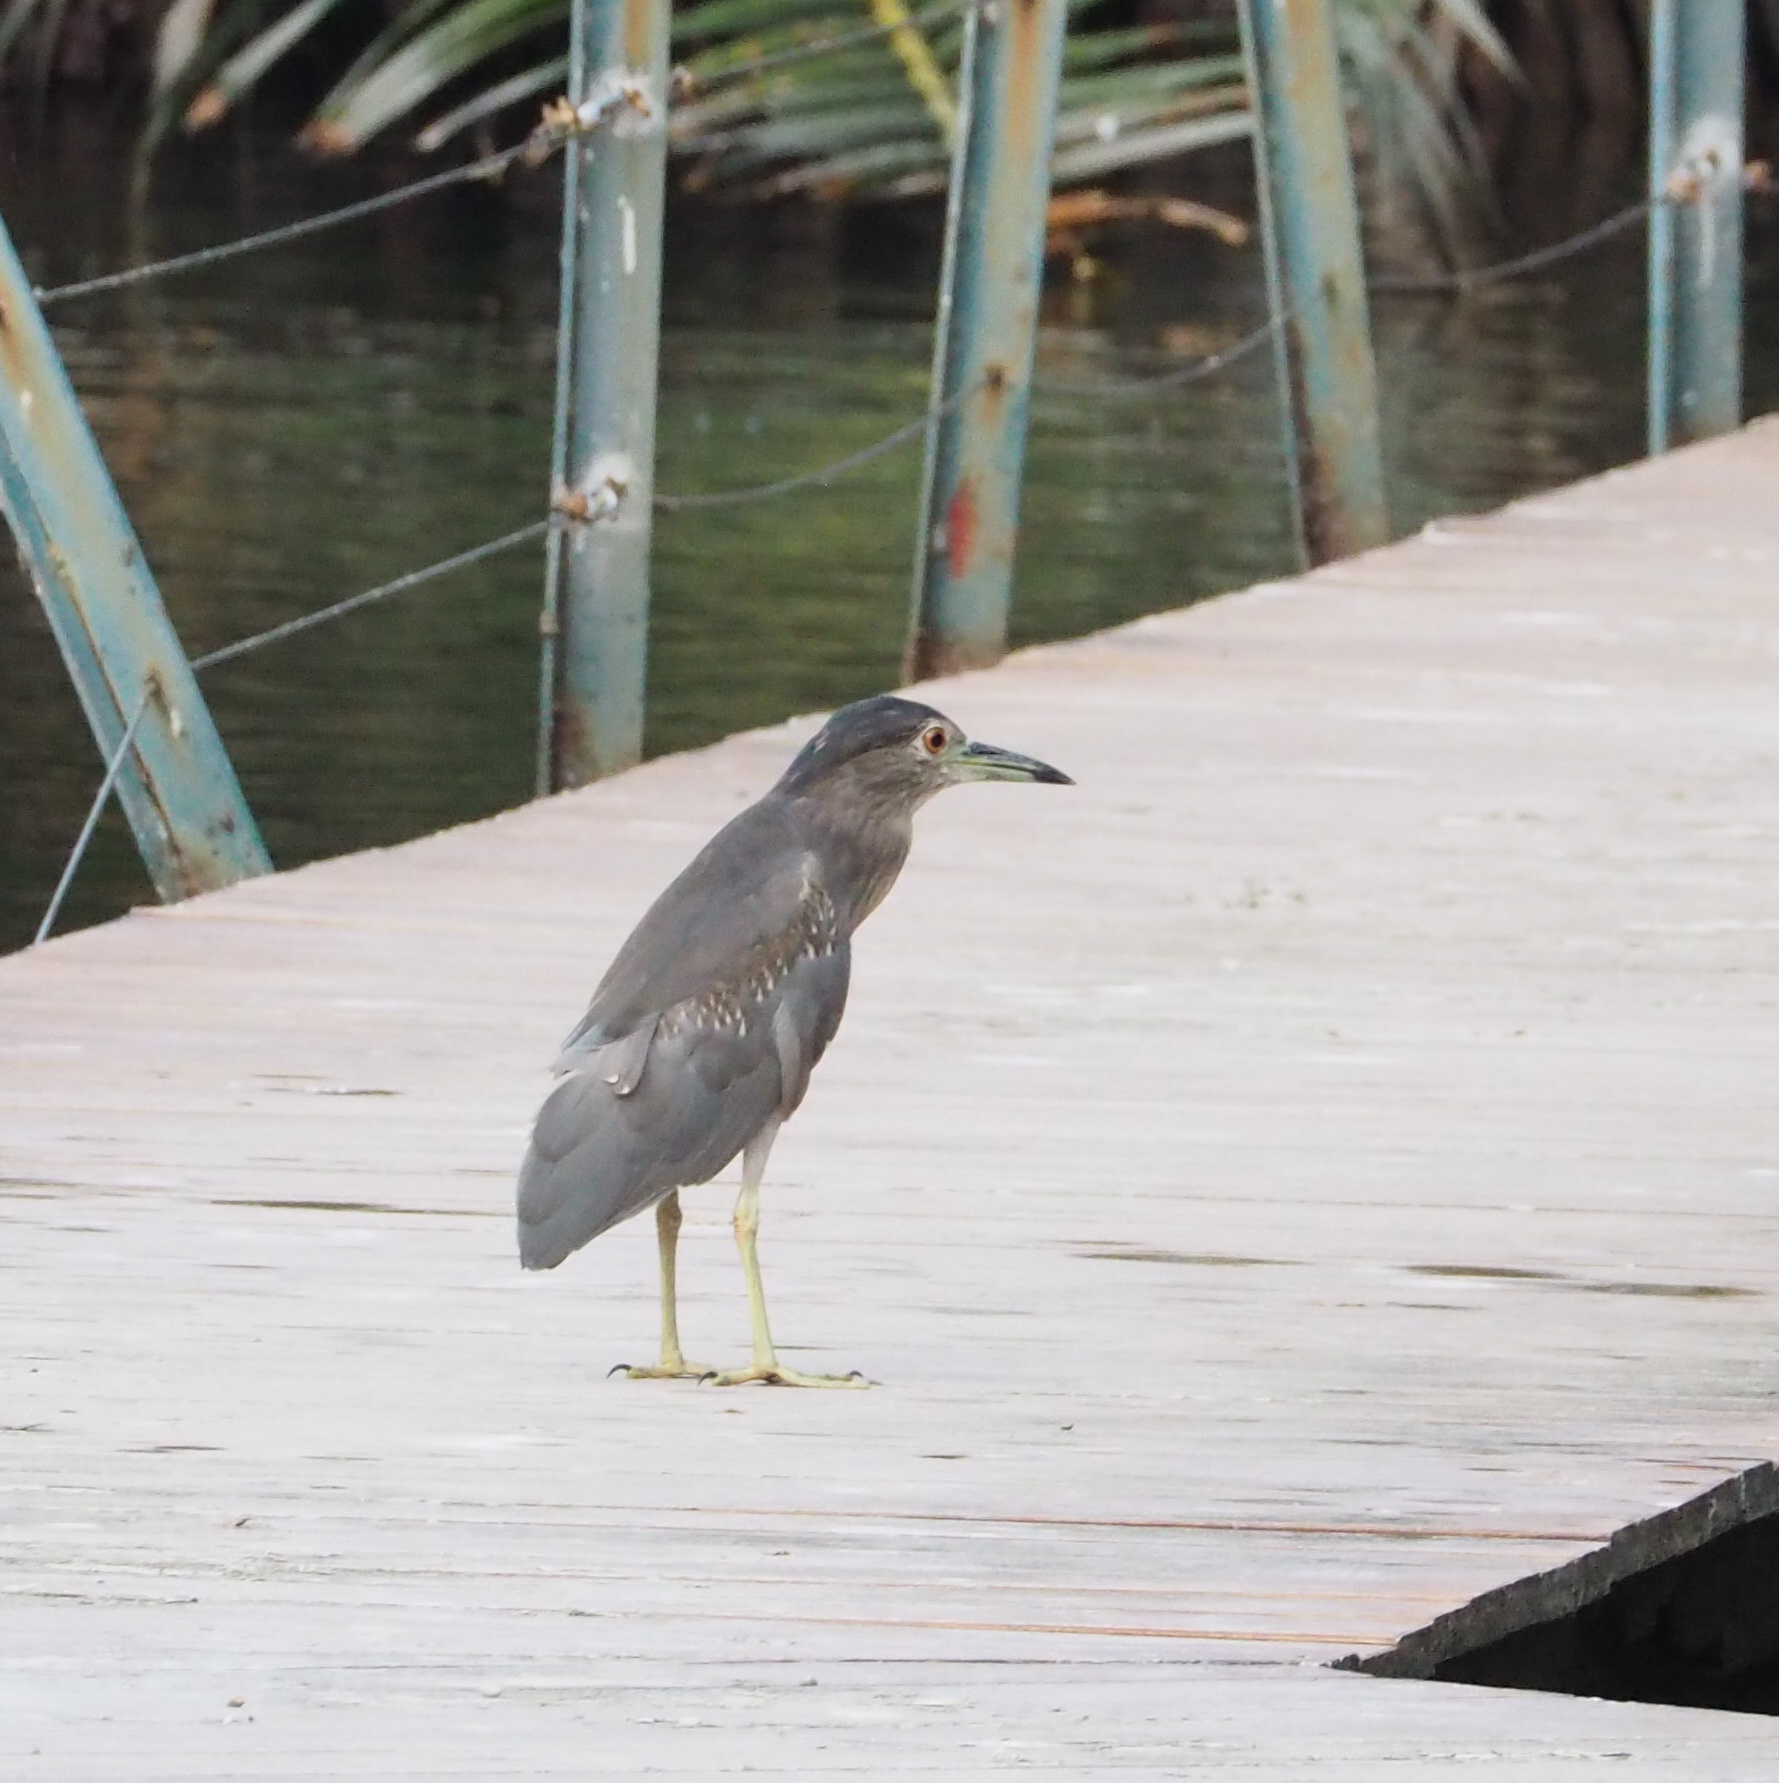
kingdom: Animalia
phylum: Chordata
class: Aves
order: Pelecaniformes
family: Ardeidae
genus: Nycticorax
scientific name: Nycticorax nycticorax
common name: Black-crowned night heron
